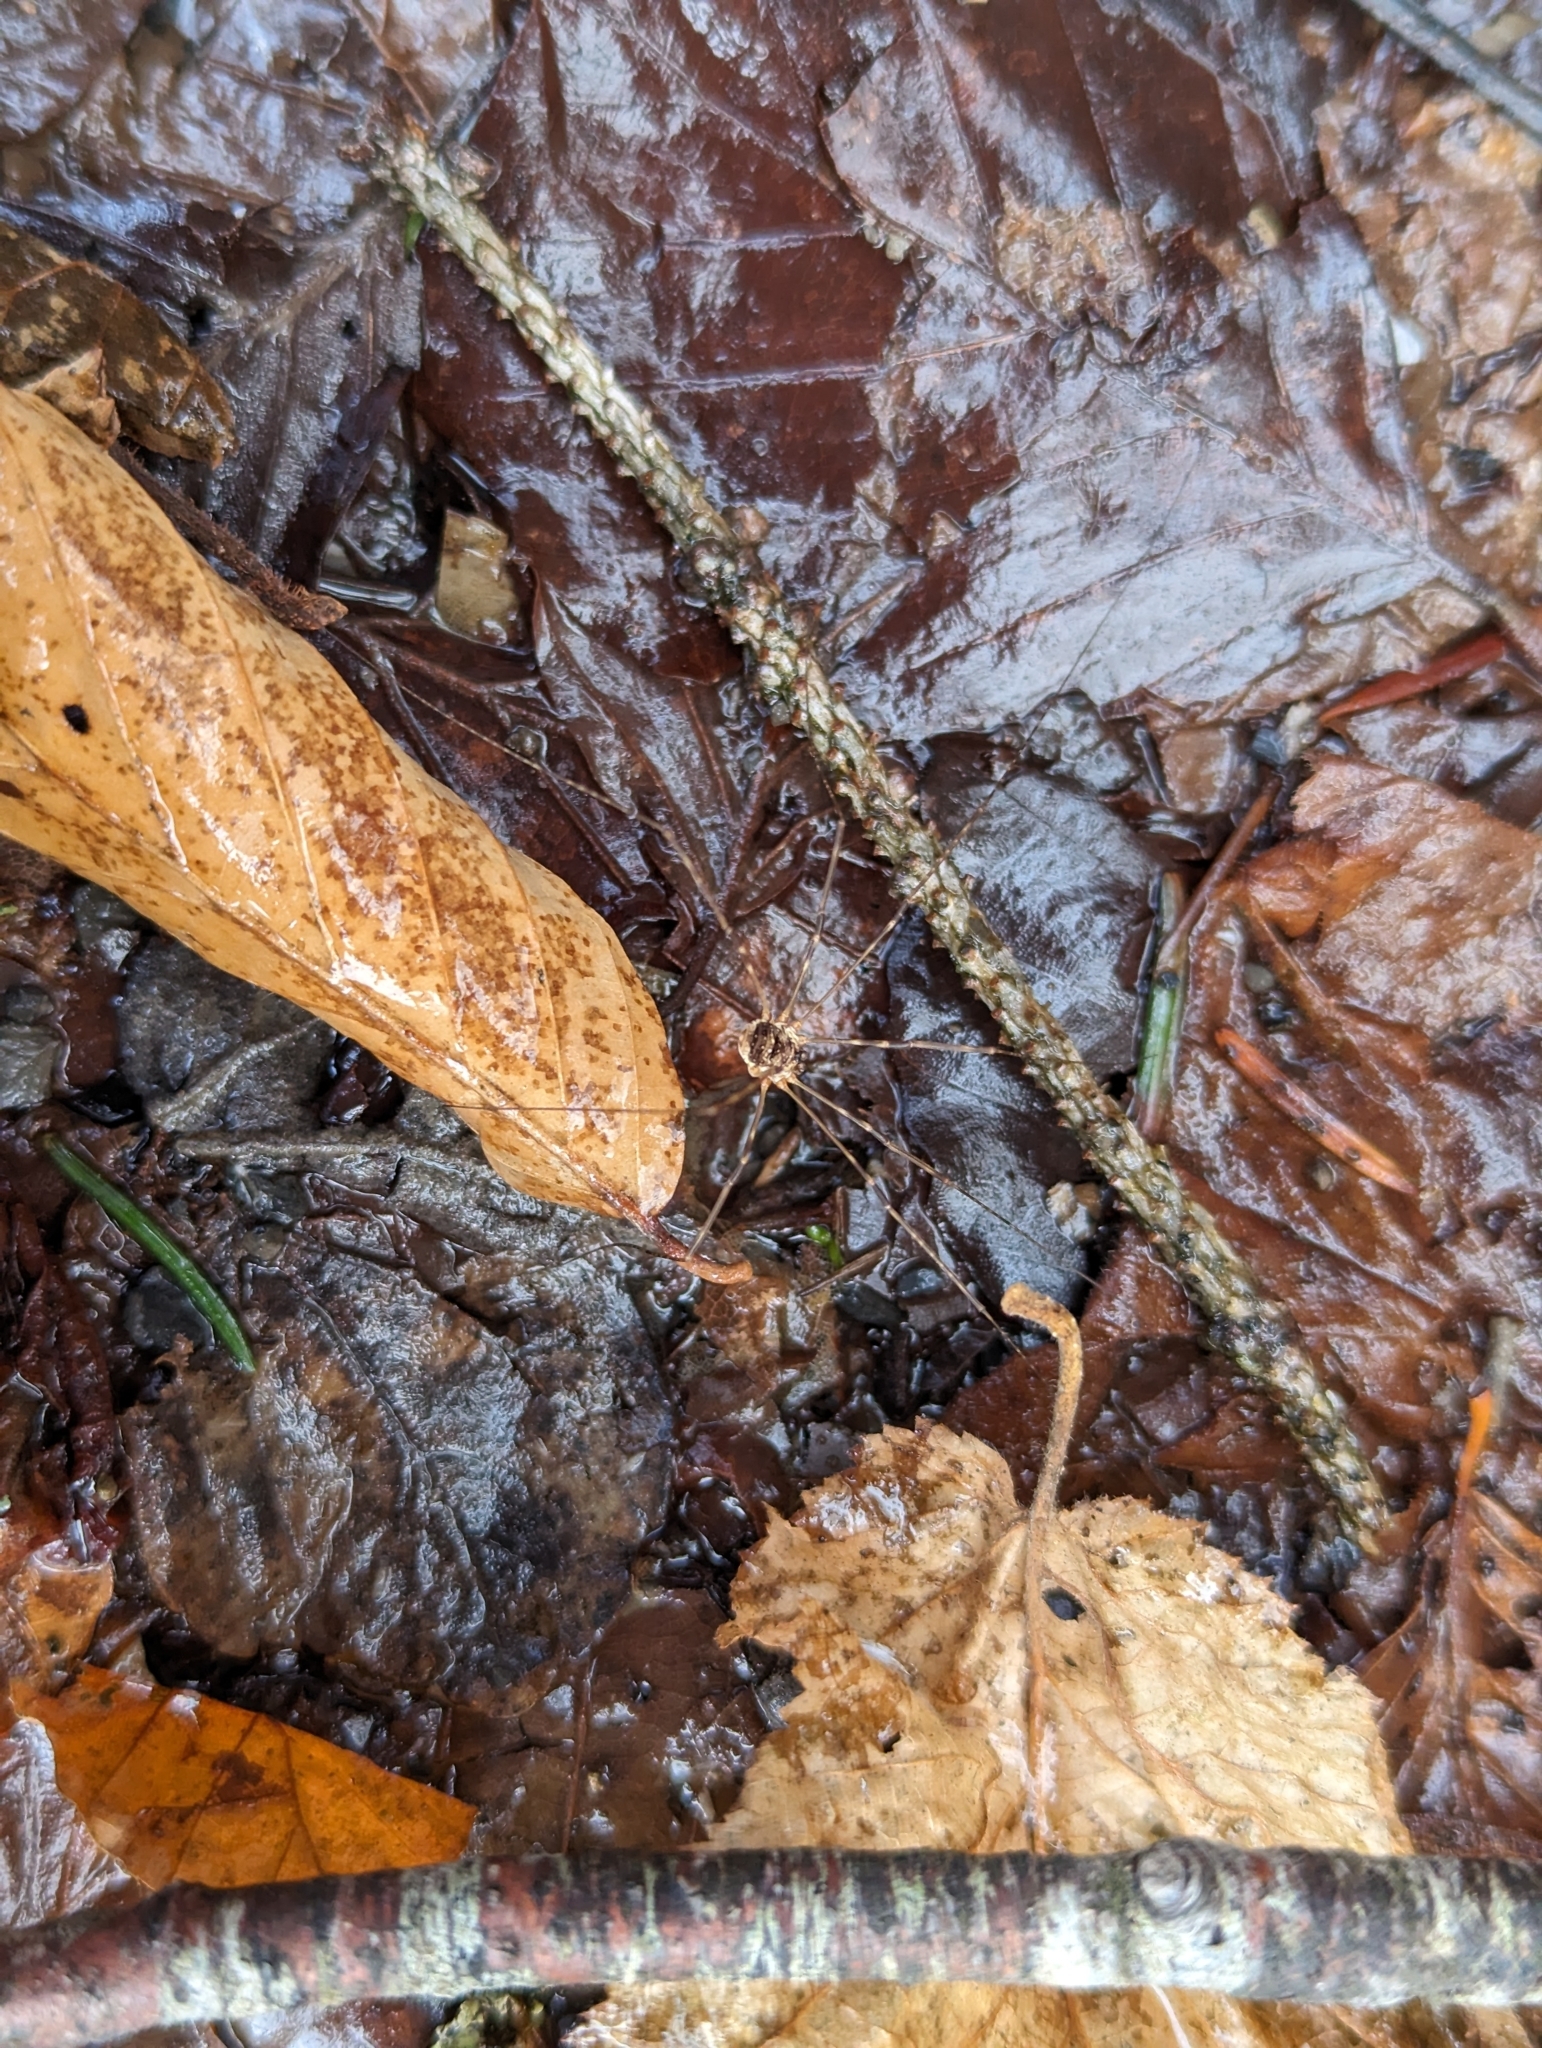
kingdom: Animalia
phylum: Arthropoda
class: Arachnida
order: Opiliones
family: Phalangiidae
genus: Amilenus
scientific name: Amilenus aurantiacus
